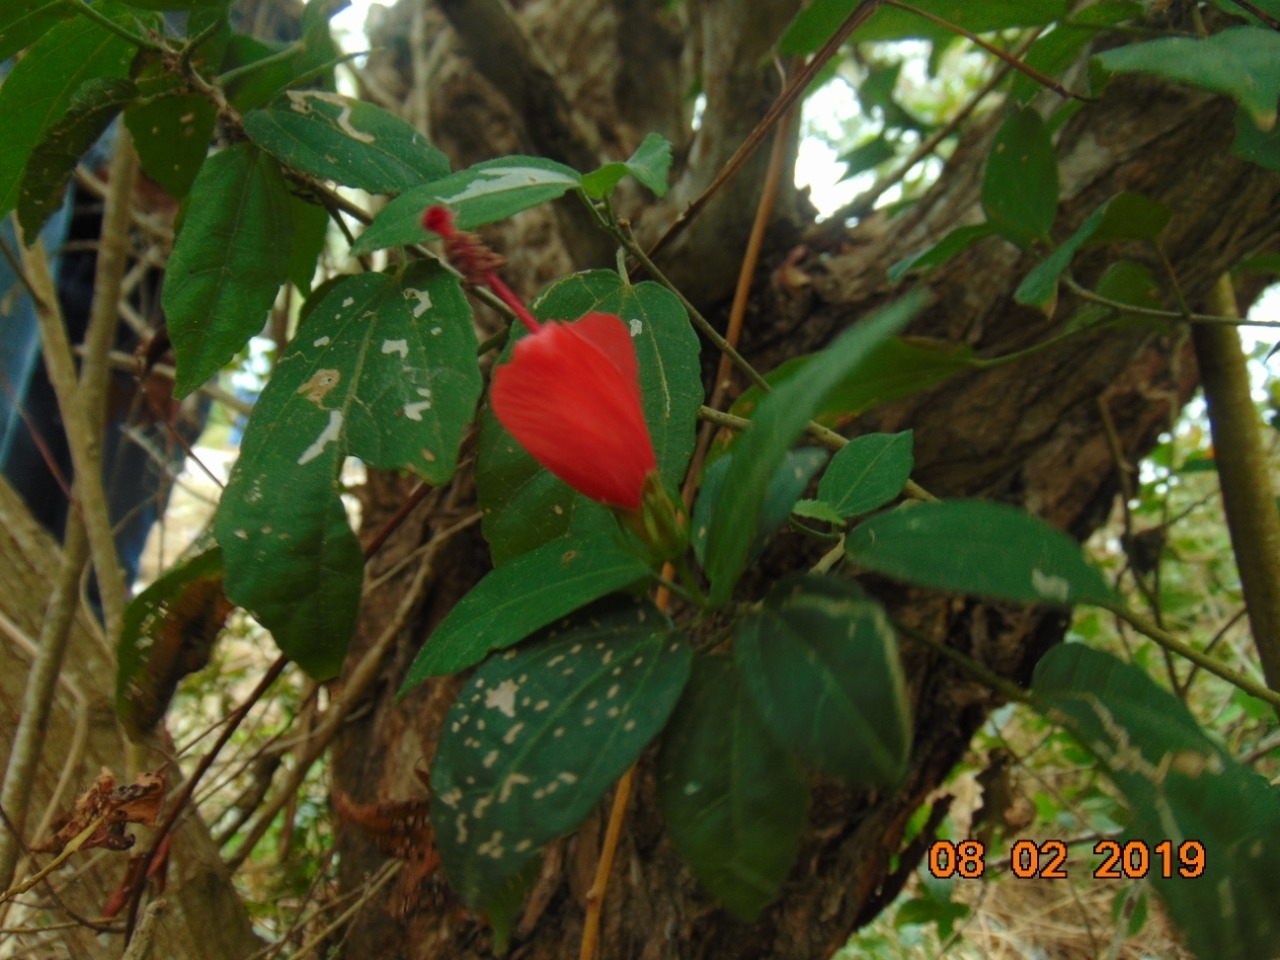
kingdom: Plantae
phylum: Tracheophyta
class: Magnoliopsida
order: Malvales
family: Malvaceae
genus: Malvaviscus
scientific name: Malvaviscus arboreus
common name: Wax mallow
